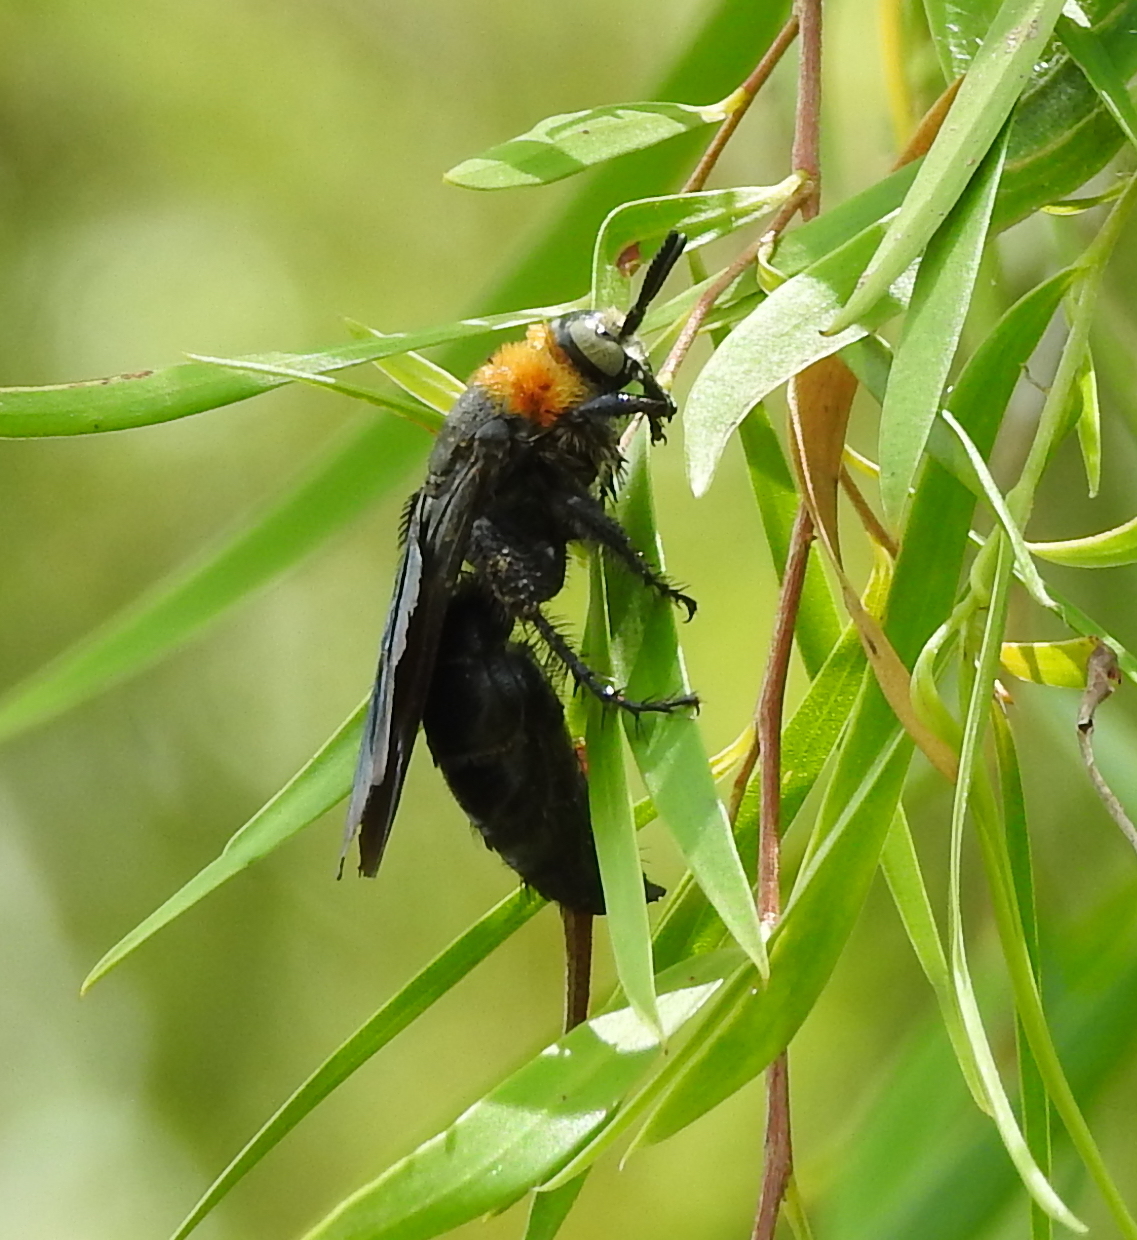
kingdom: Animalia
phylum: Arthropoda
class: Insecta
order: Hymenoptera
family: Scoliidae
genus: Campsomeriella
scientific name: Campsomeriella collaris
